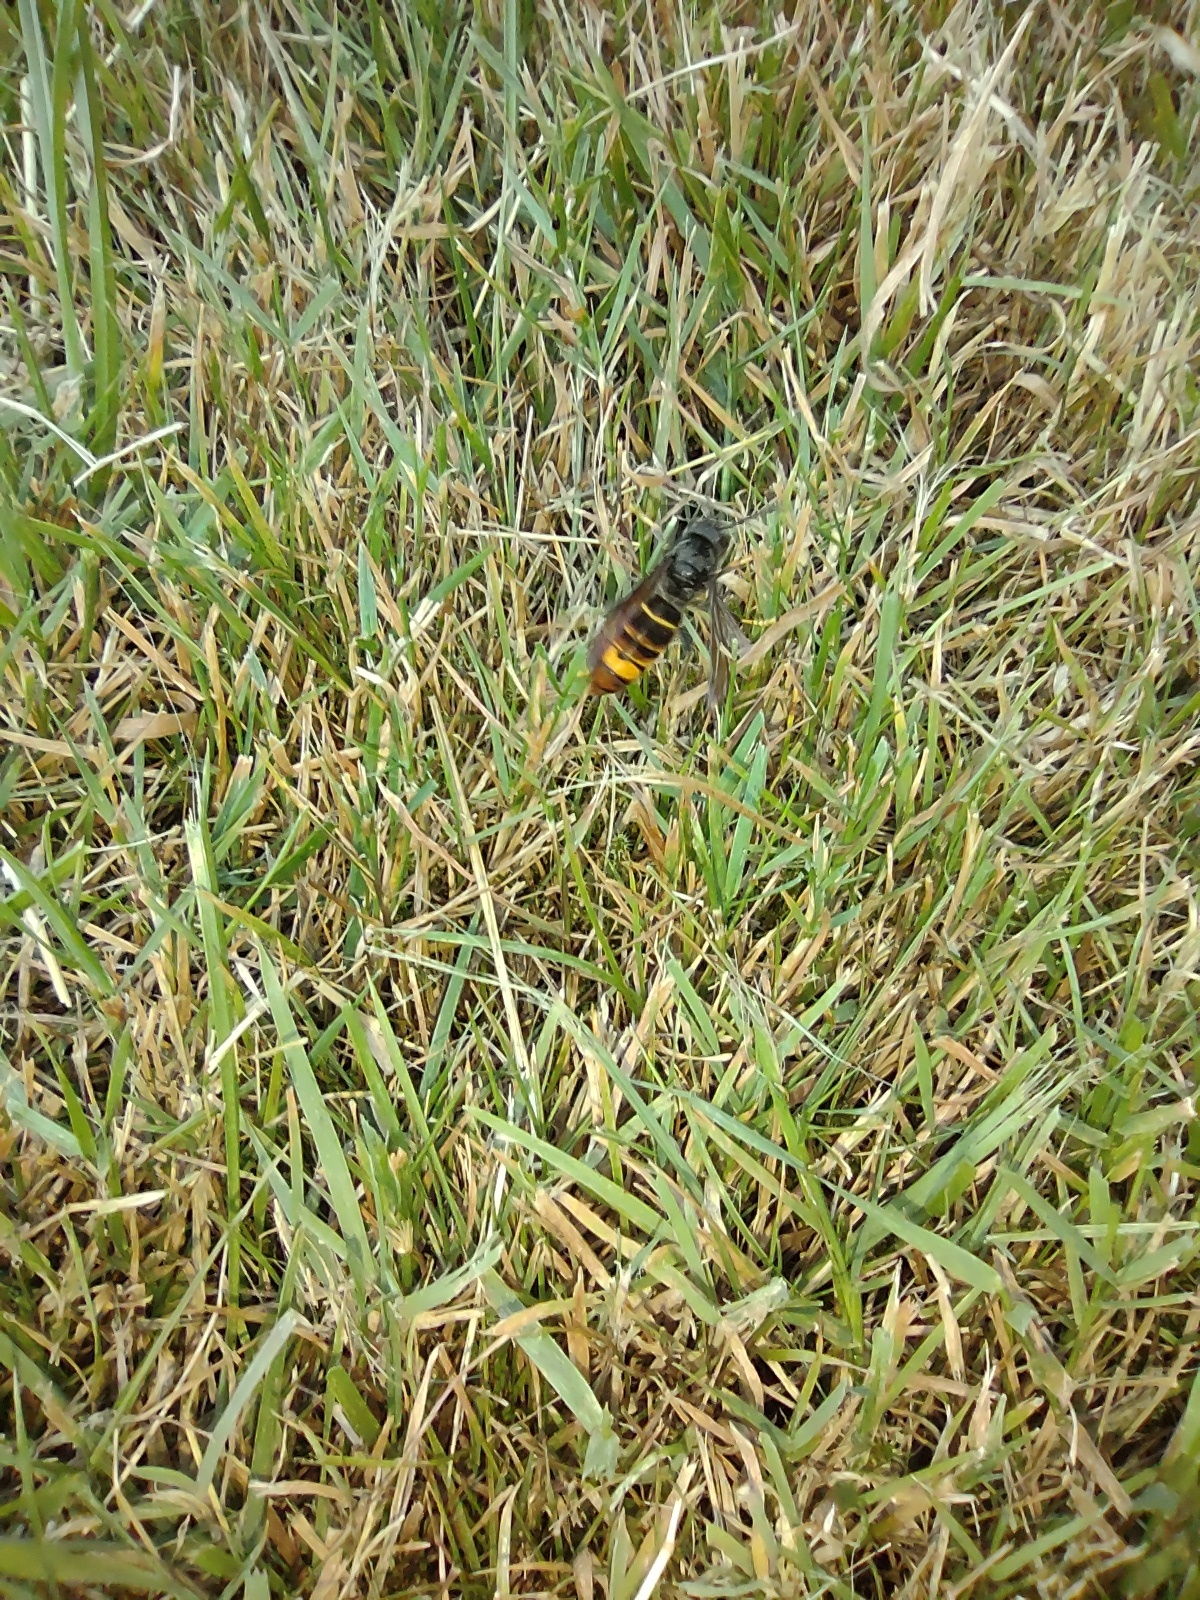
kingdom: Animalia
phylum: Arthropoda
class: Insecta
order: Hymenoptera
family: Vespidae
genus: Vespa
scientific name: Vespa velutina
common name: Asian hornet
